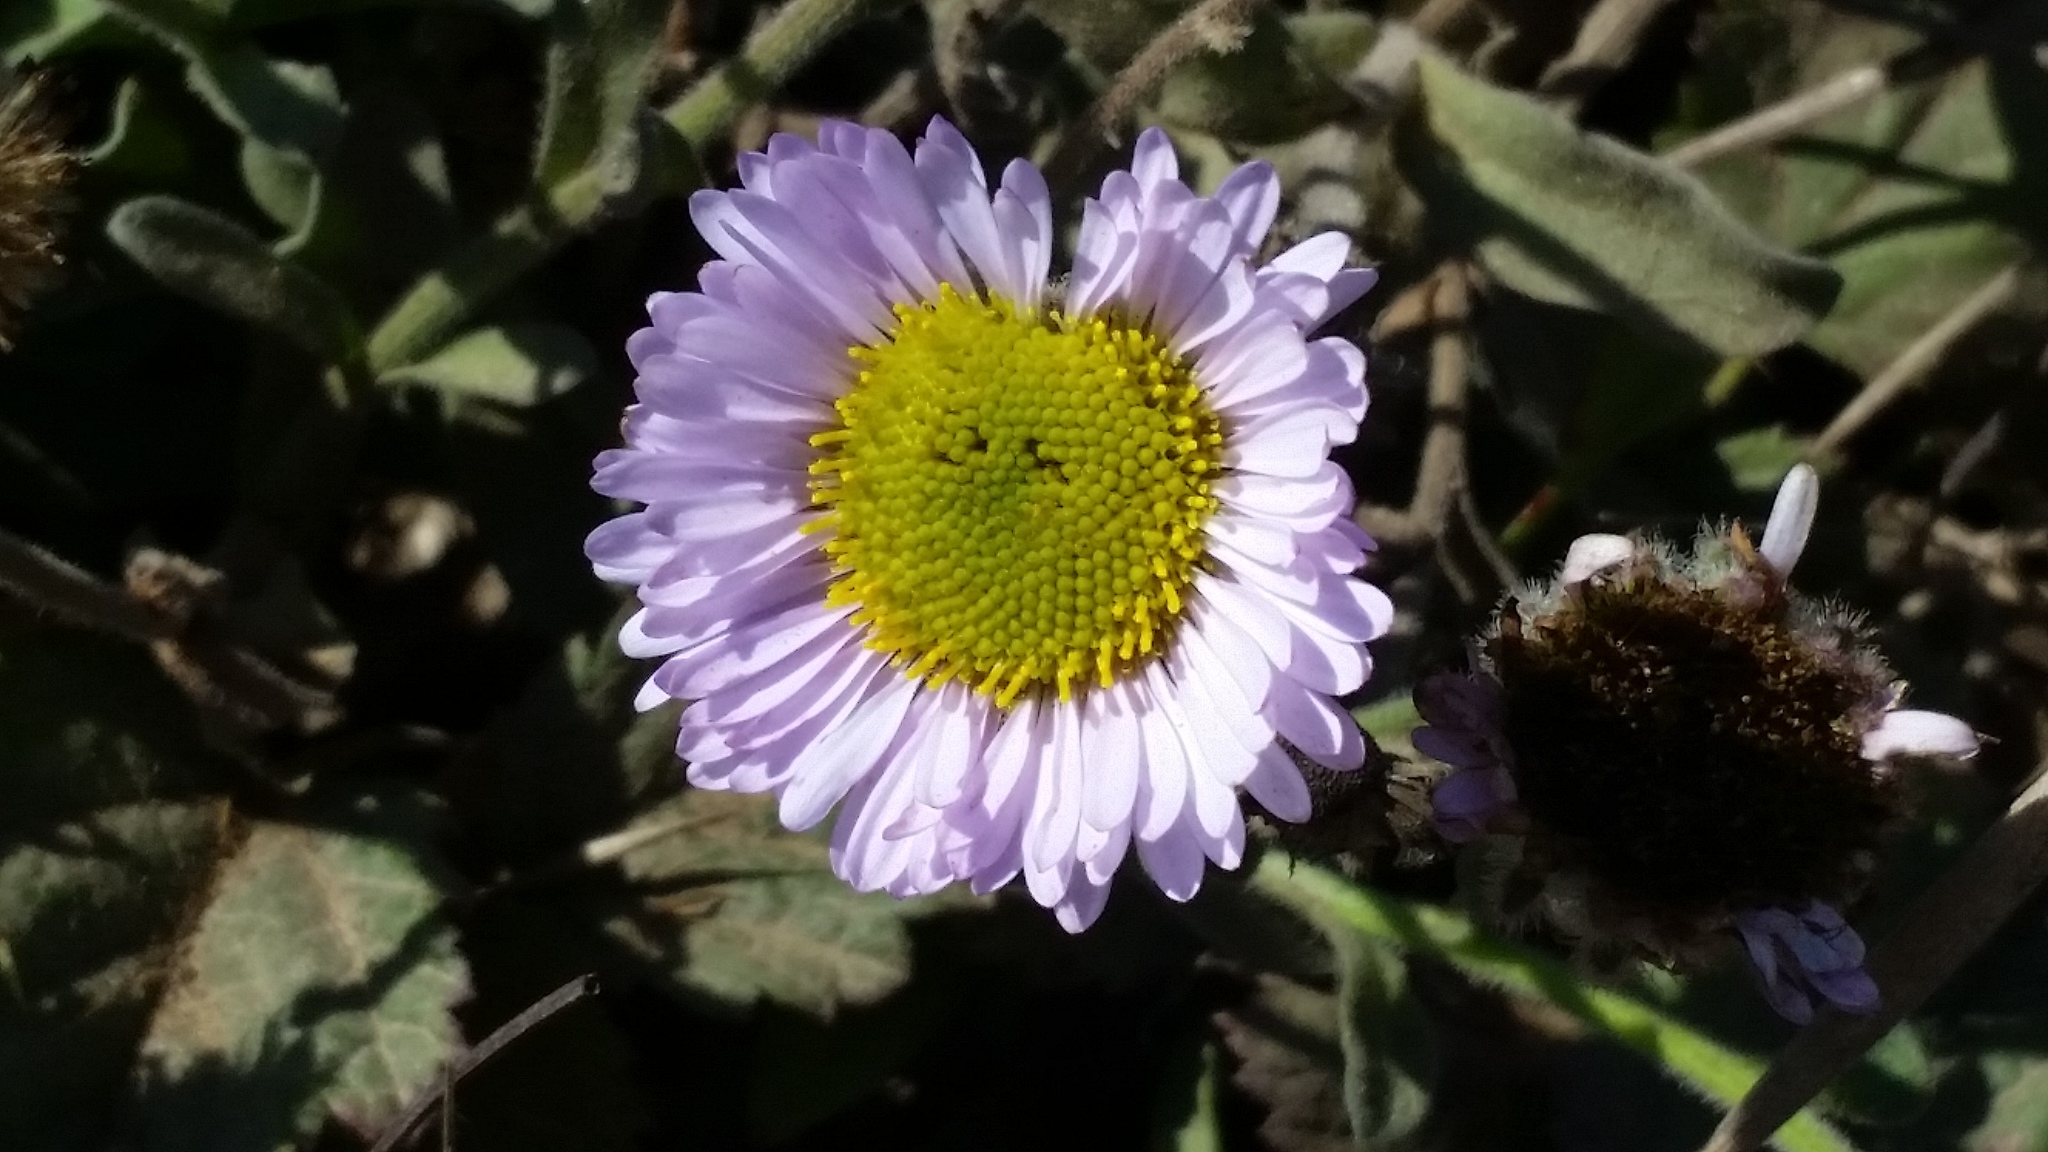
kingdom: Plantae
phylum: Tracheophyta
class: Magnoliopsida
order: Asterales
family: Asteraceae
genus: Erigeron
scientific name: Erigeron glaucus
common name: Seaside daisy
